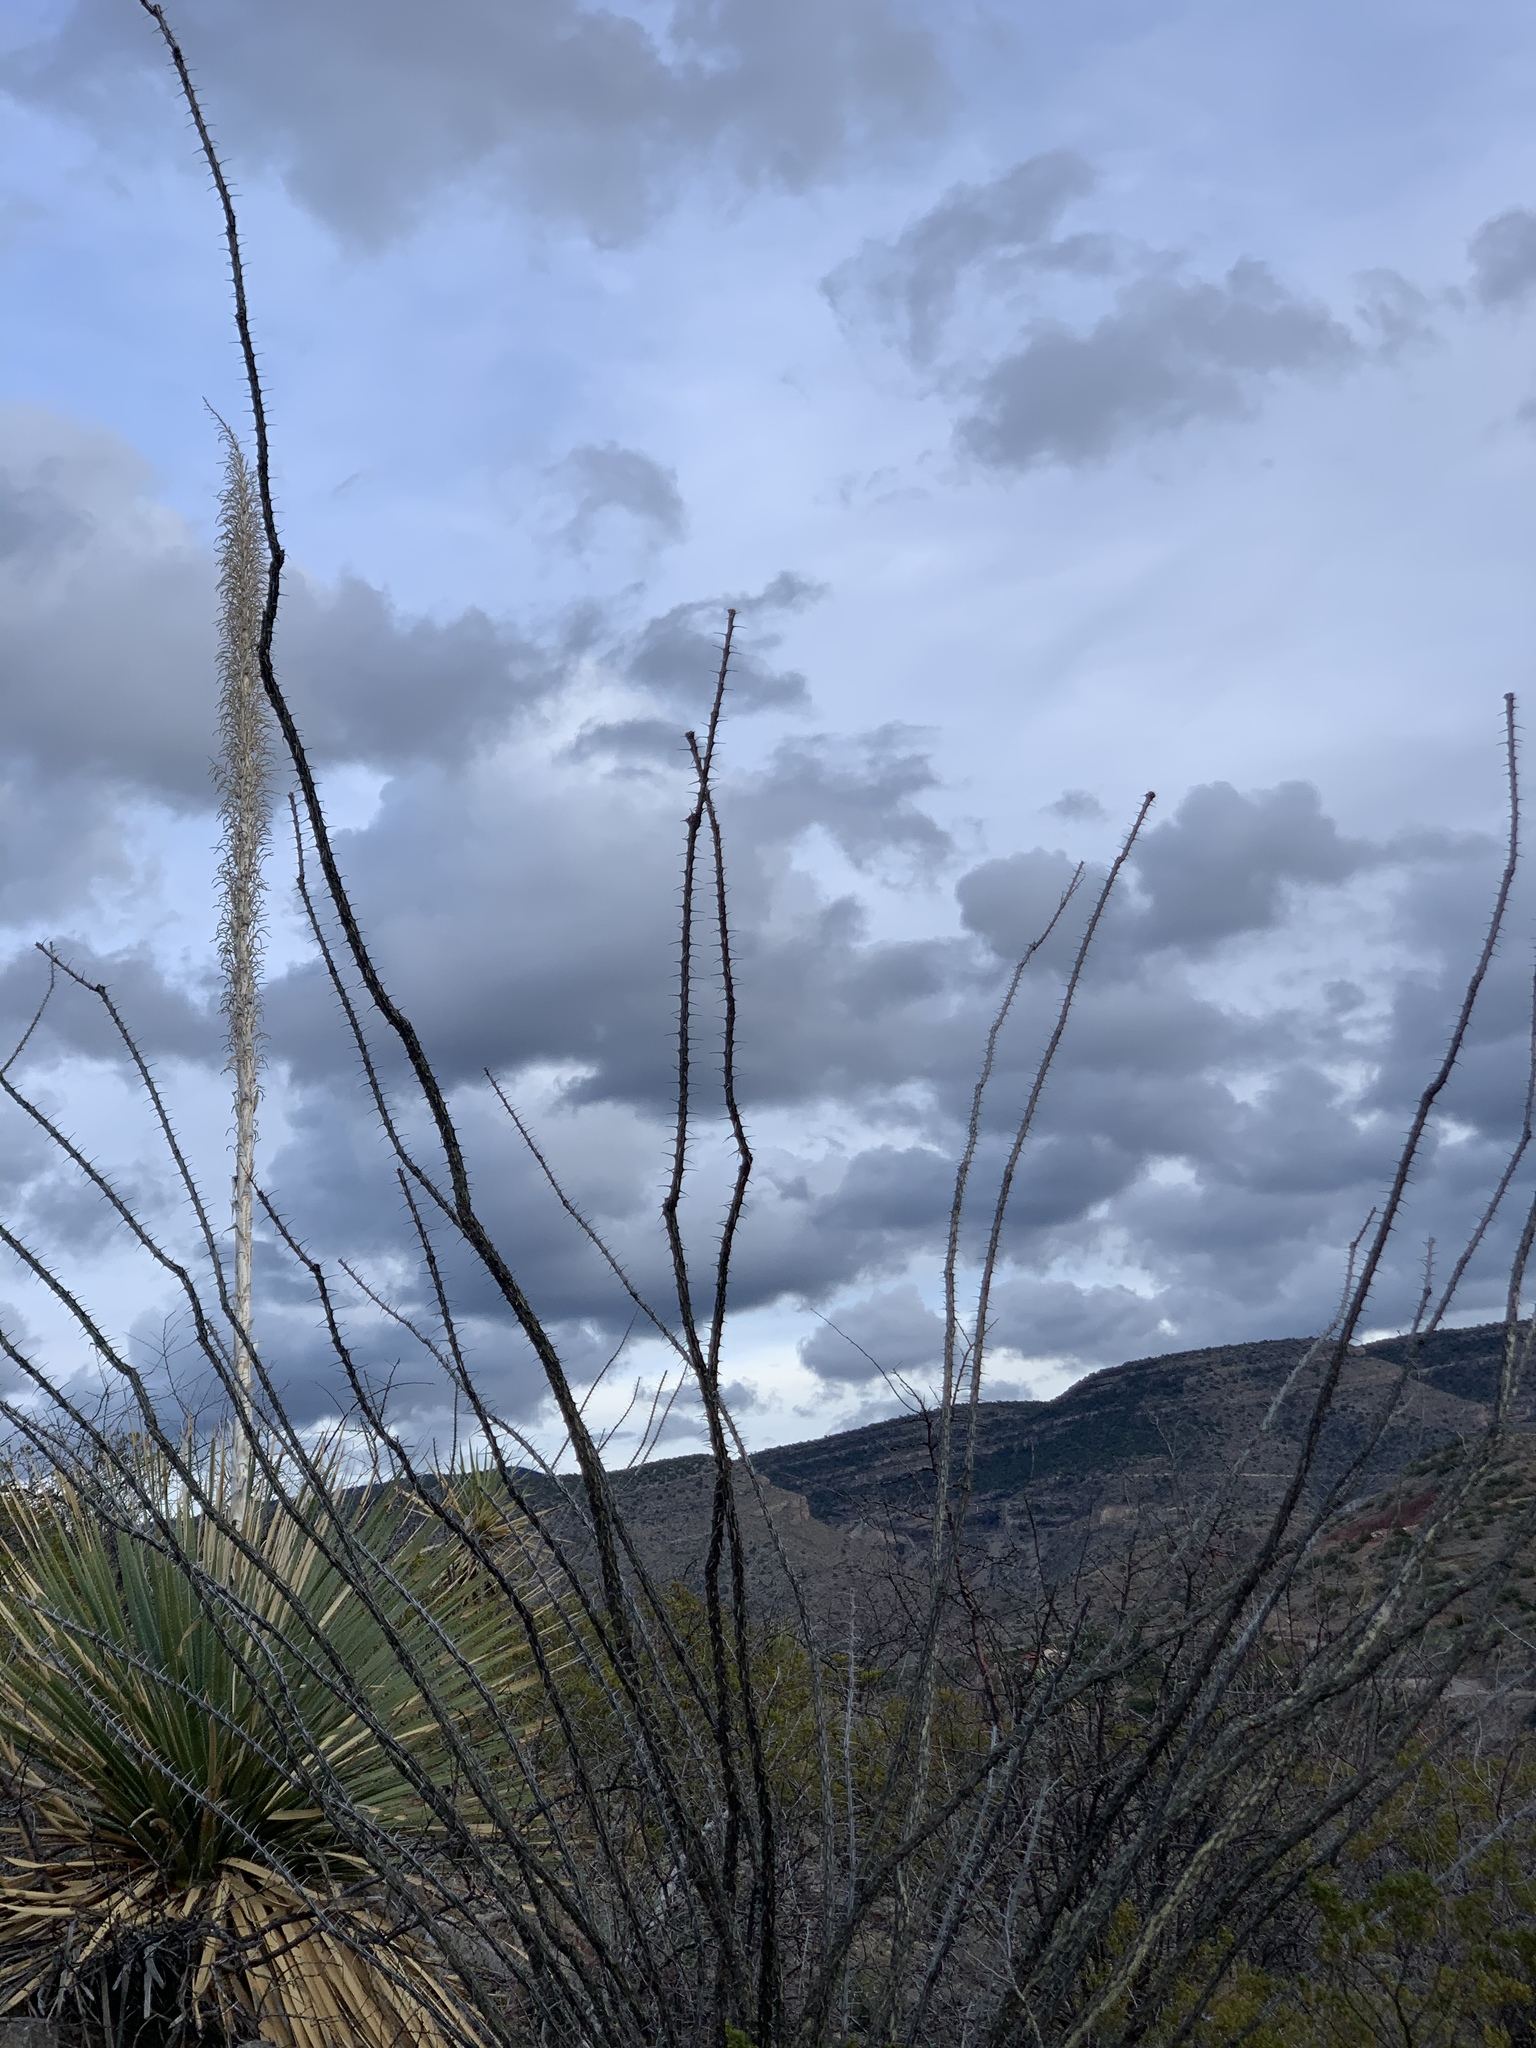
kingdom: Plantae
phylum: Tracheophyta
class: Magnoliopsida
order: Ericales
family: Fouquieriaceae
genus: Fouquieria
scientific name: Fouquieria splendens
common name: Vine-cactus
